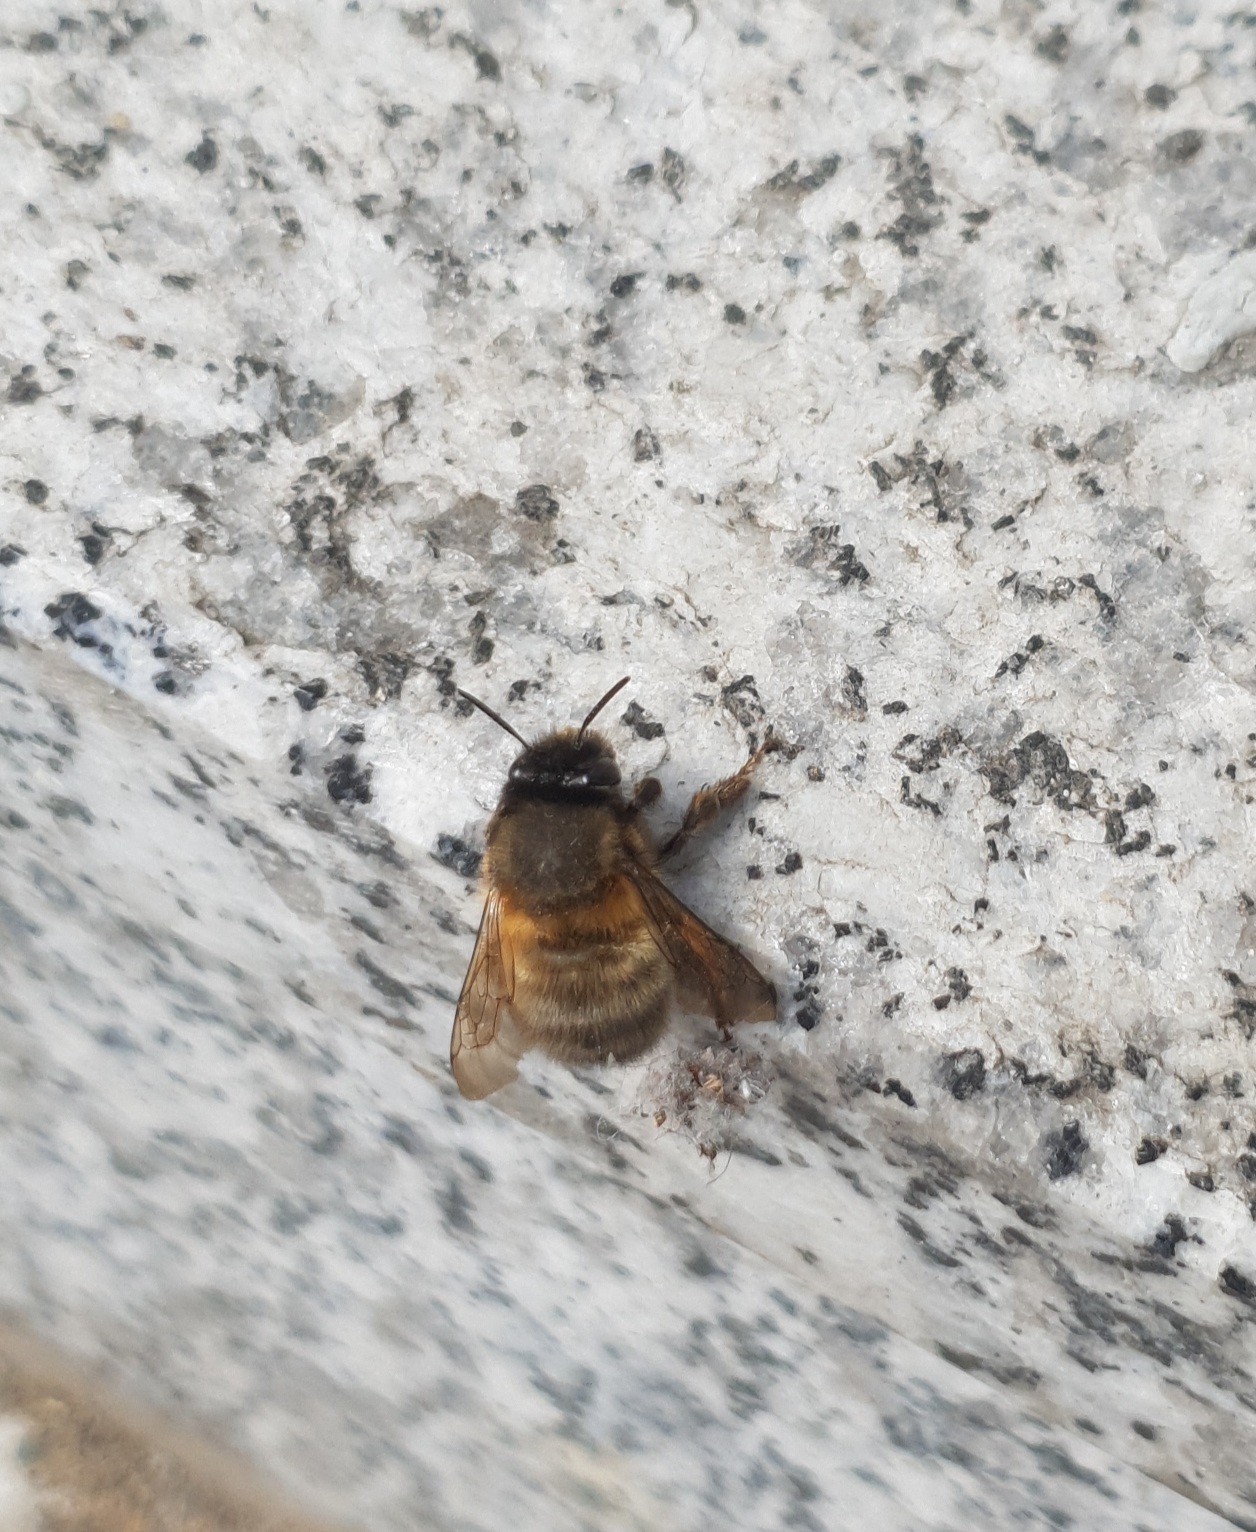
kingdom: Animalia
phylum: Arthropoda
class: Insecta
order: Hymenoptera
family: Apidae
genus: Anthophora
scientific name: Anthophora plumipes
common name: Hairy-footed flower bee
